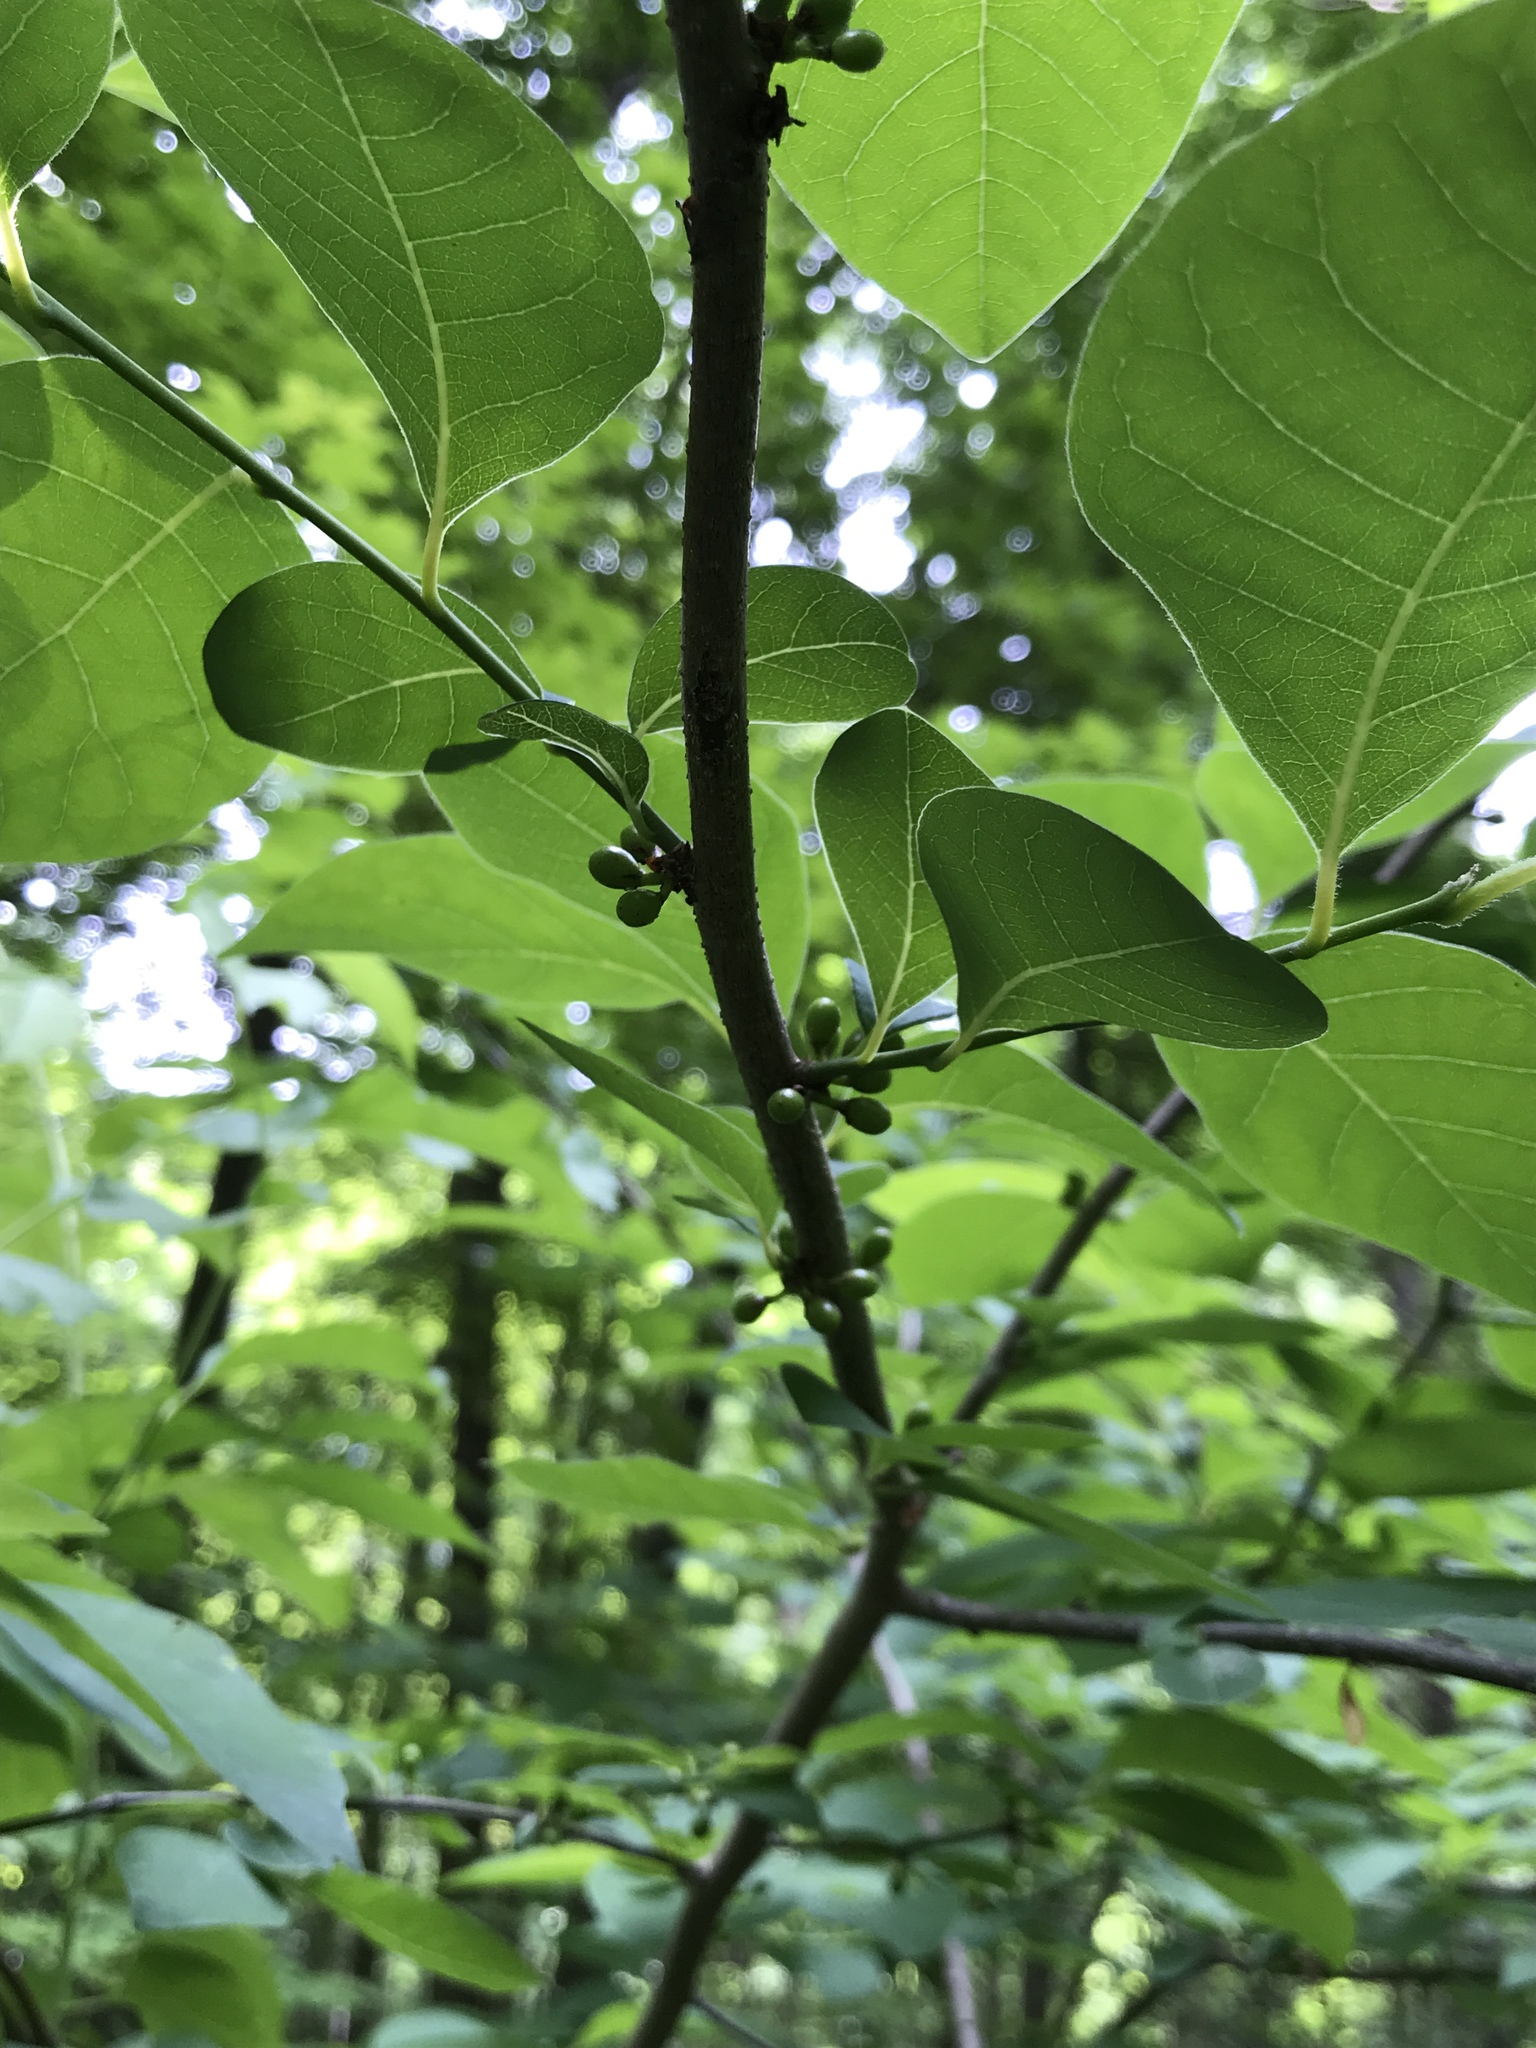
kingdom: Plantae
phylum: Tracheophyta
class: Magnoliopsida
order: Laurales
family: Lauraceae
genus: Lindera
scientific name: Lindera benzoin
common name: Spicebush
